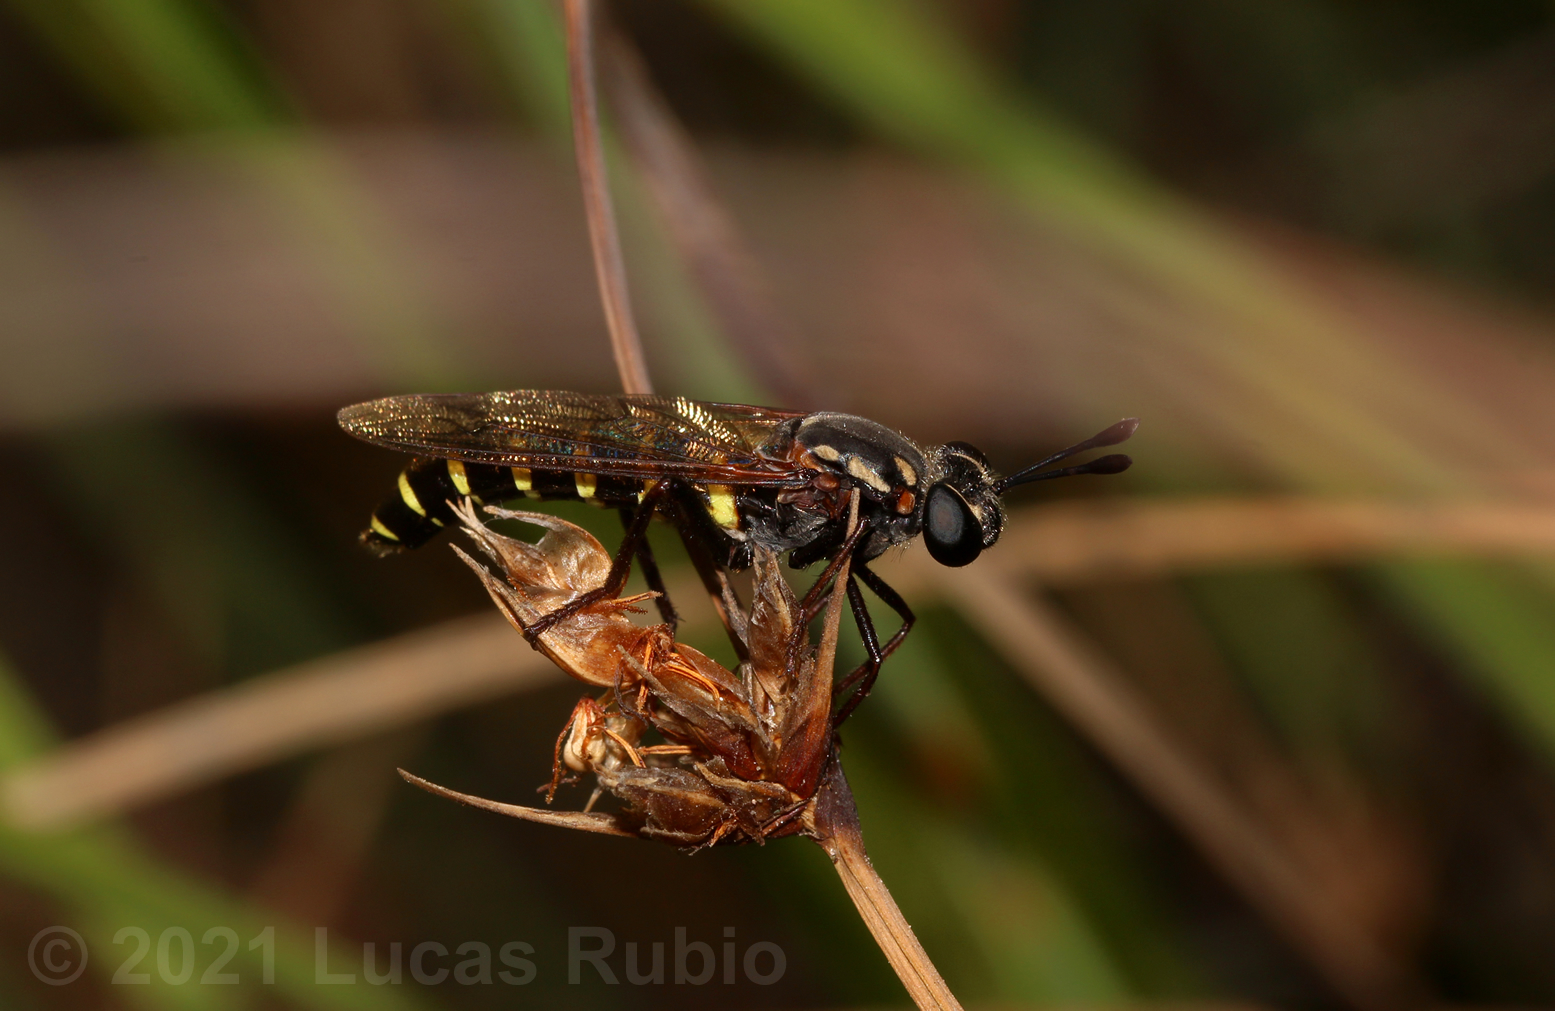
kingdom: Animalia
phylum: Arthropoda
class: Insecta
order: Diptera
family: Mydidae
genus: Messiasia
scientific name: Messiasia notospila
